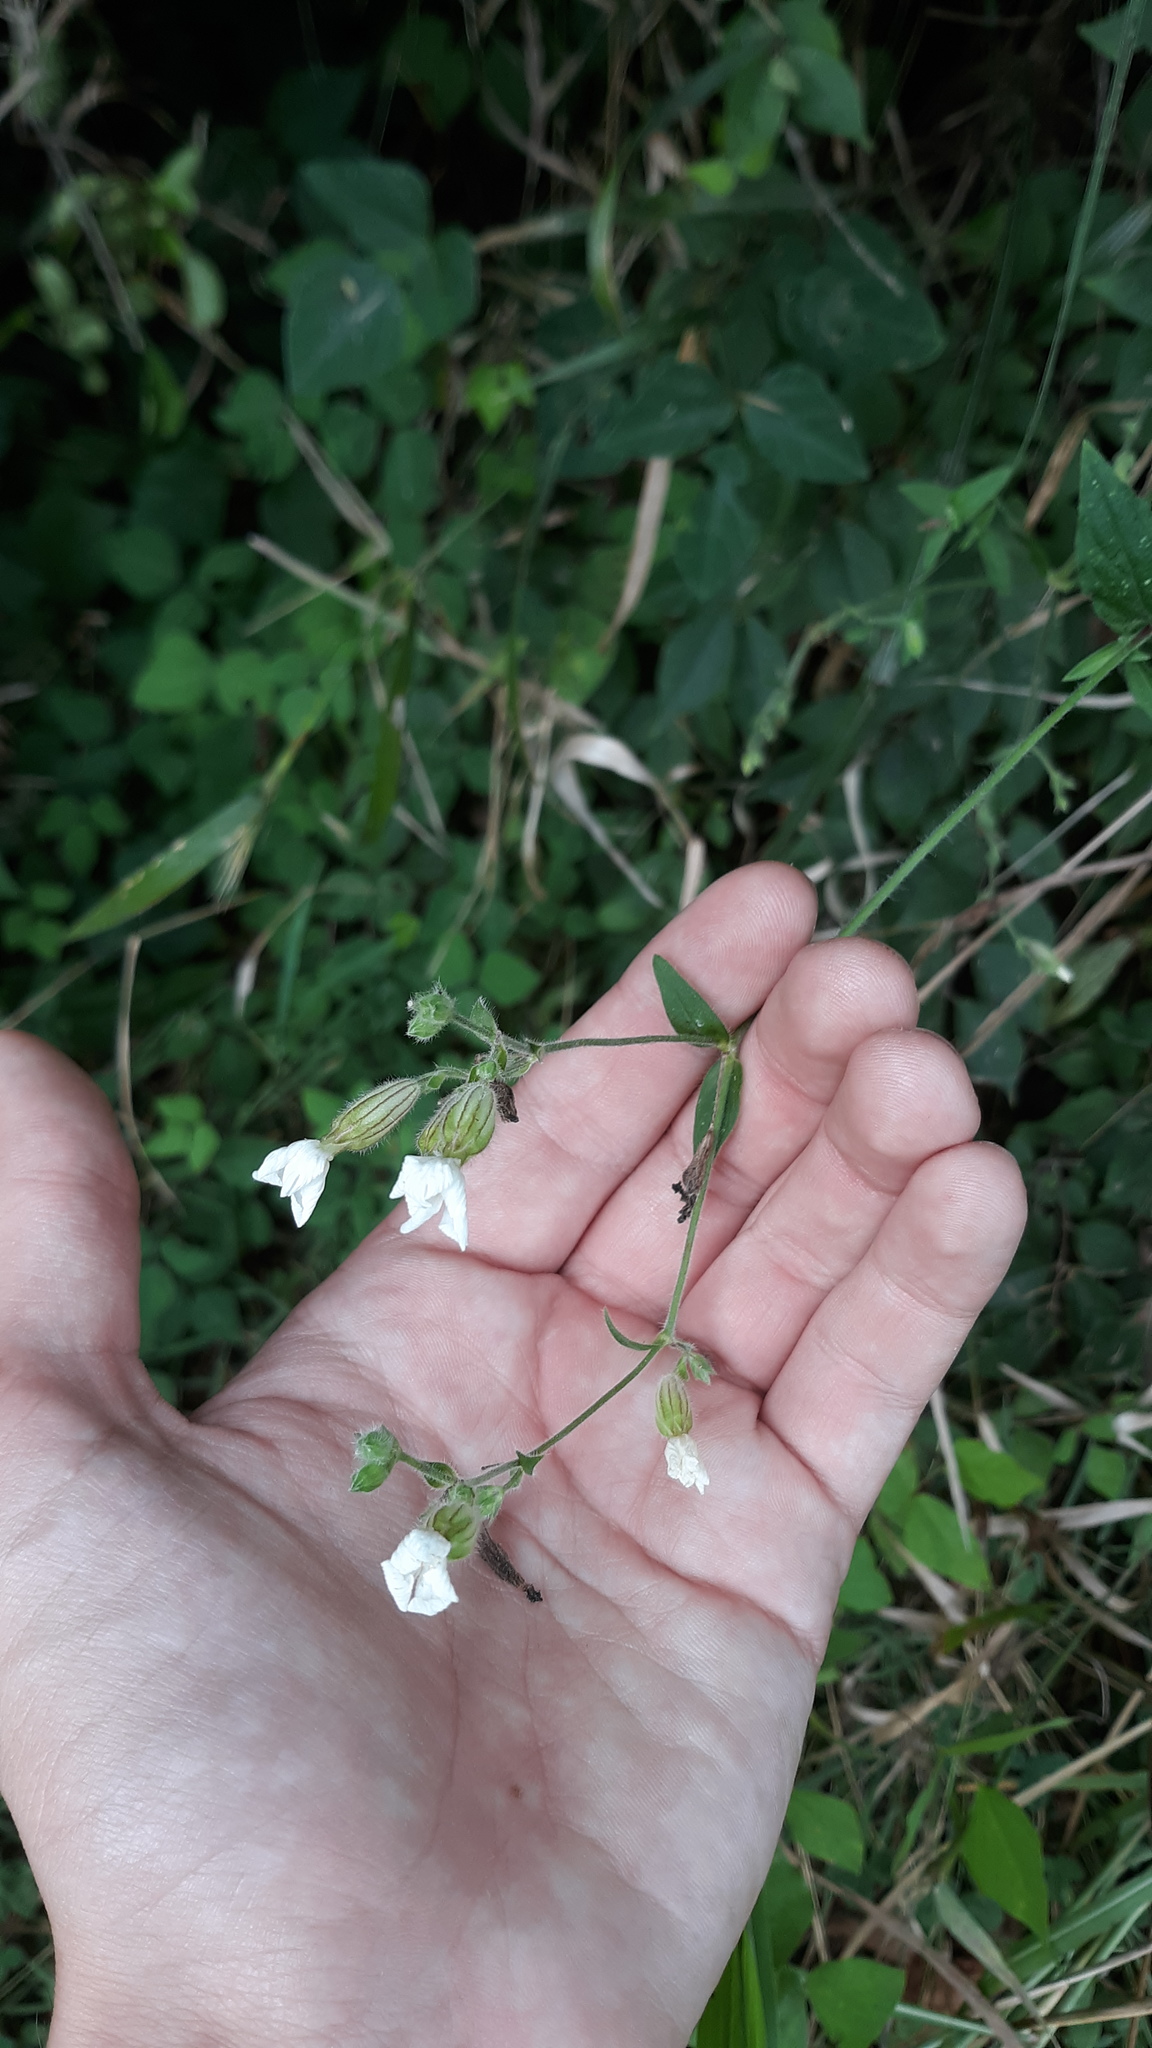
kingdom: Plantae
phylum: Tracheophyta
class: Magnoliopsida
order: Caryophyllales
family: Caryophyllaceae
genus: Silene
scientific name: Silene latifolia
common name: White campion
